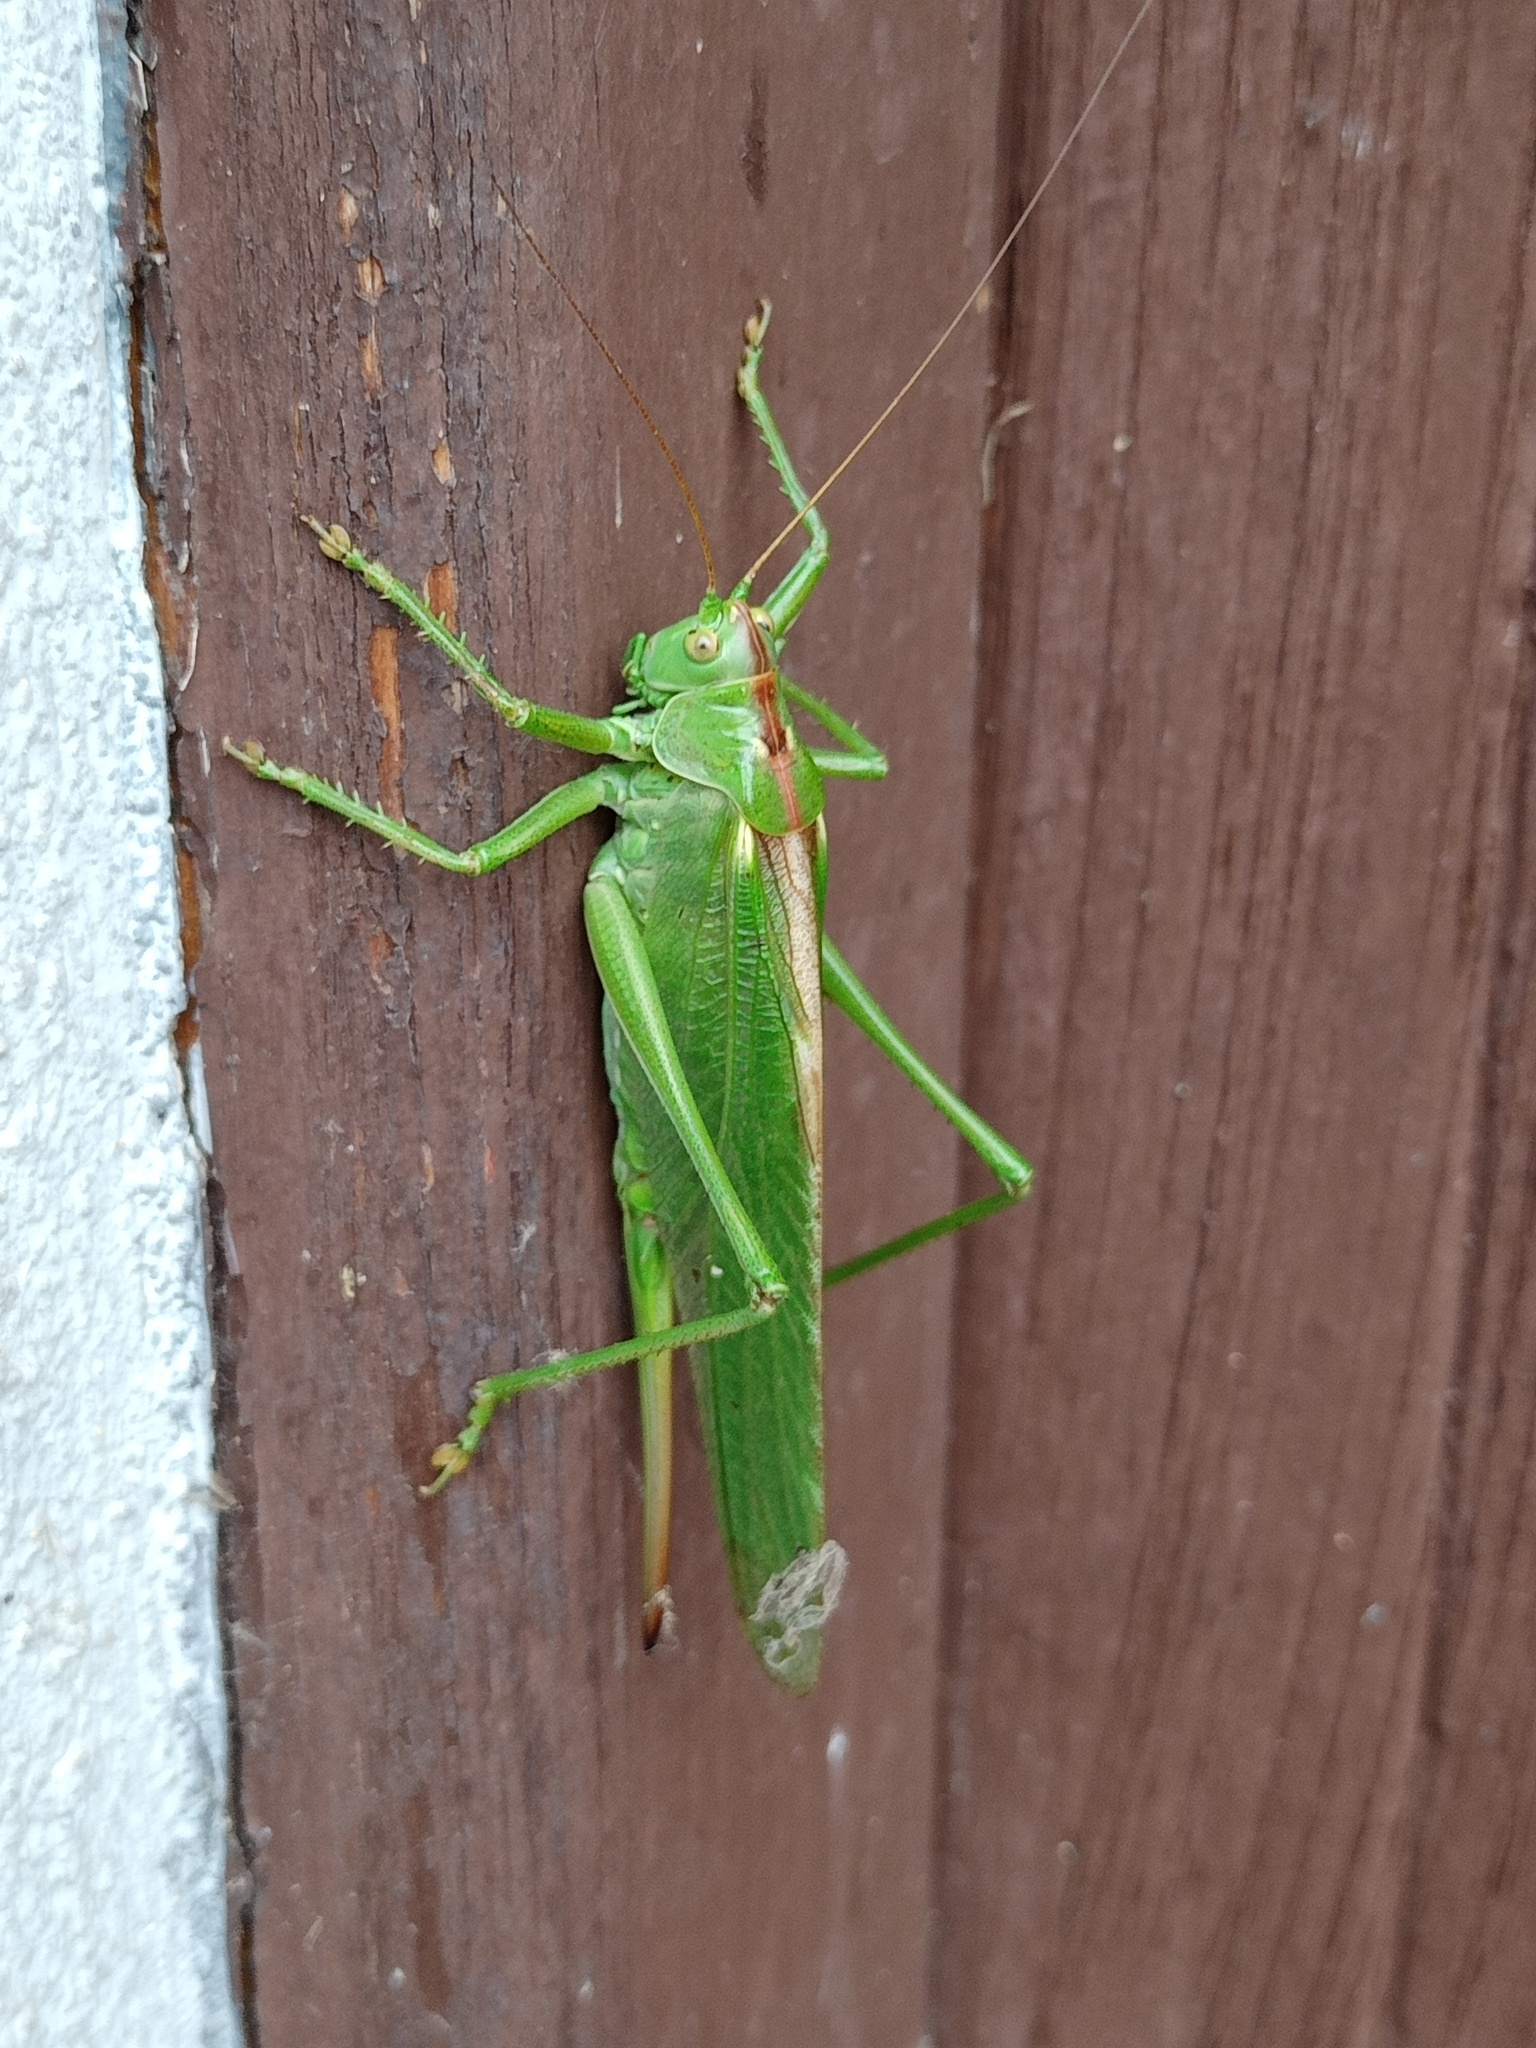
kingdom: Animalia
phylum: Arthropoda
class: Insecta
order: Orthoptera
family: Tettigoniidae
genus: Tettigonia
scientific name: Tettigonia viridissima
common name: Great green bush-cricket
